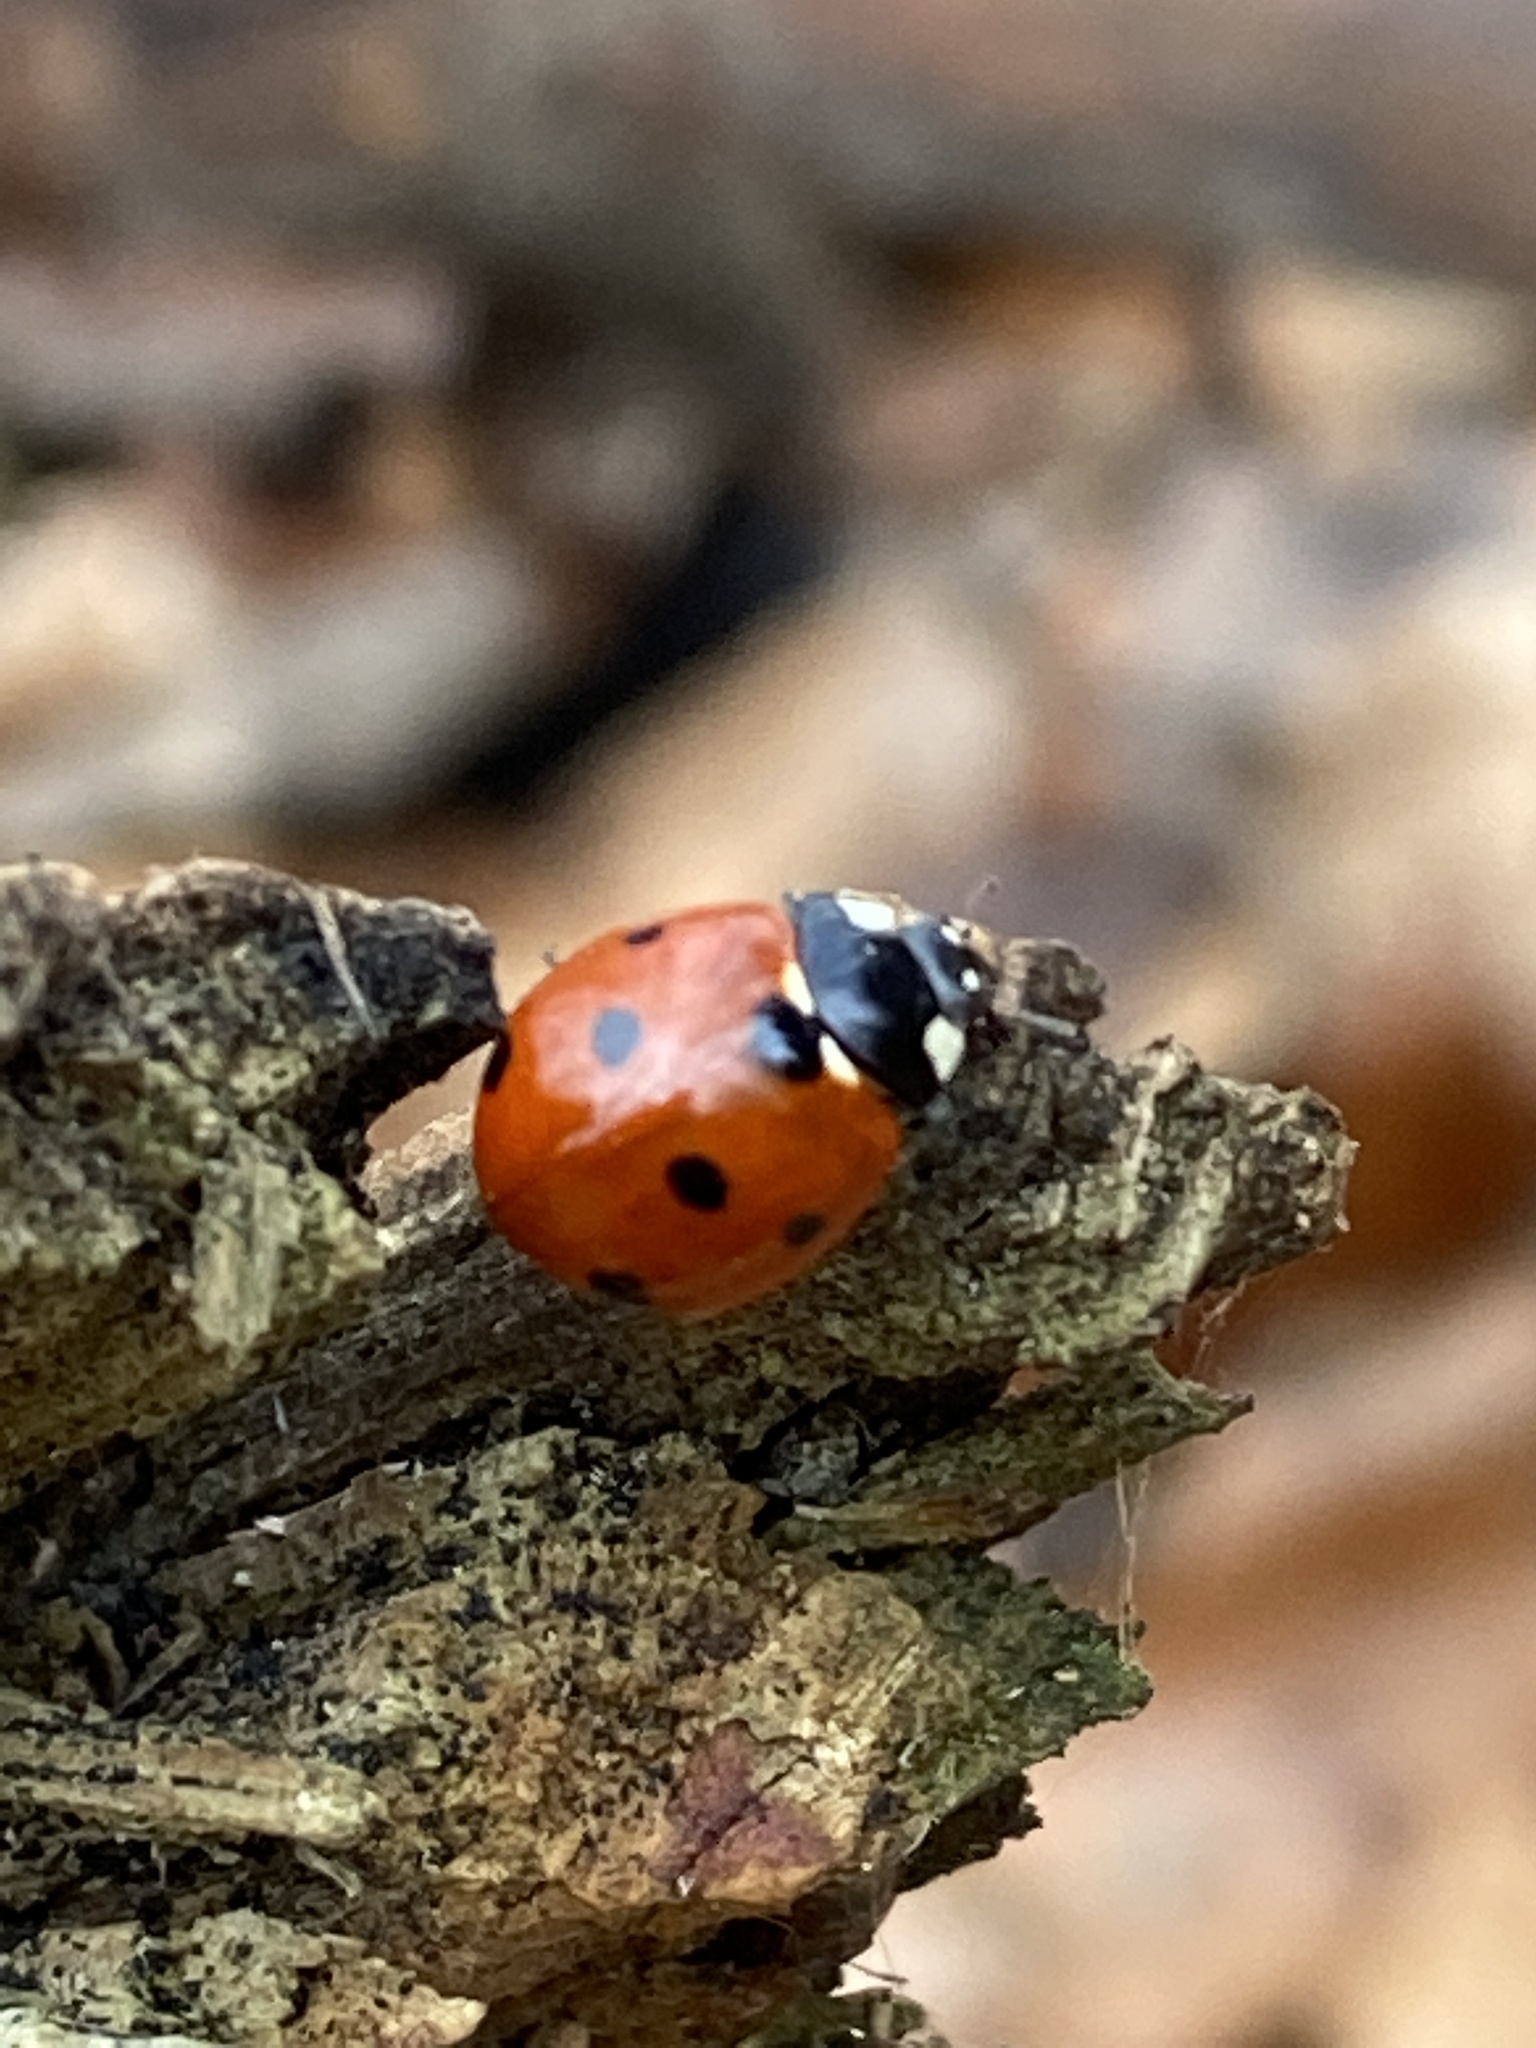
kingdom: Animalia
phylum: Arthropoda
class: Insecta
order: Coleoptera
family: Coccinellidae
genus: Coccinella
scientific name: Coccinella septempunctata
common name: Sevenspotted lady beetle
